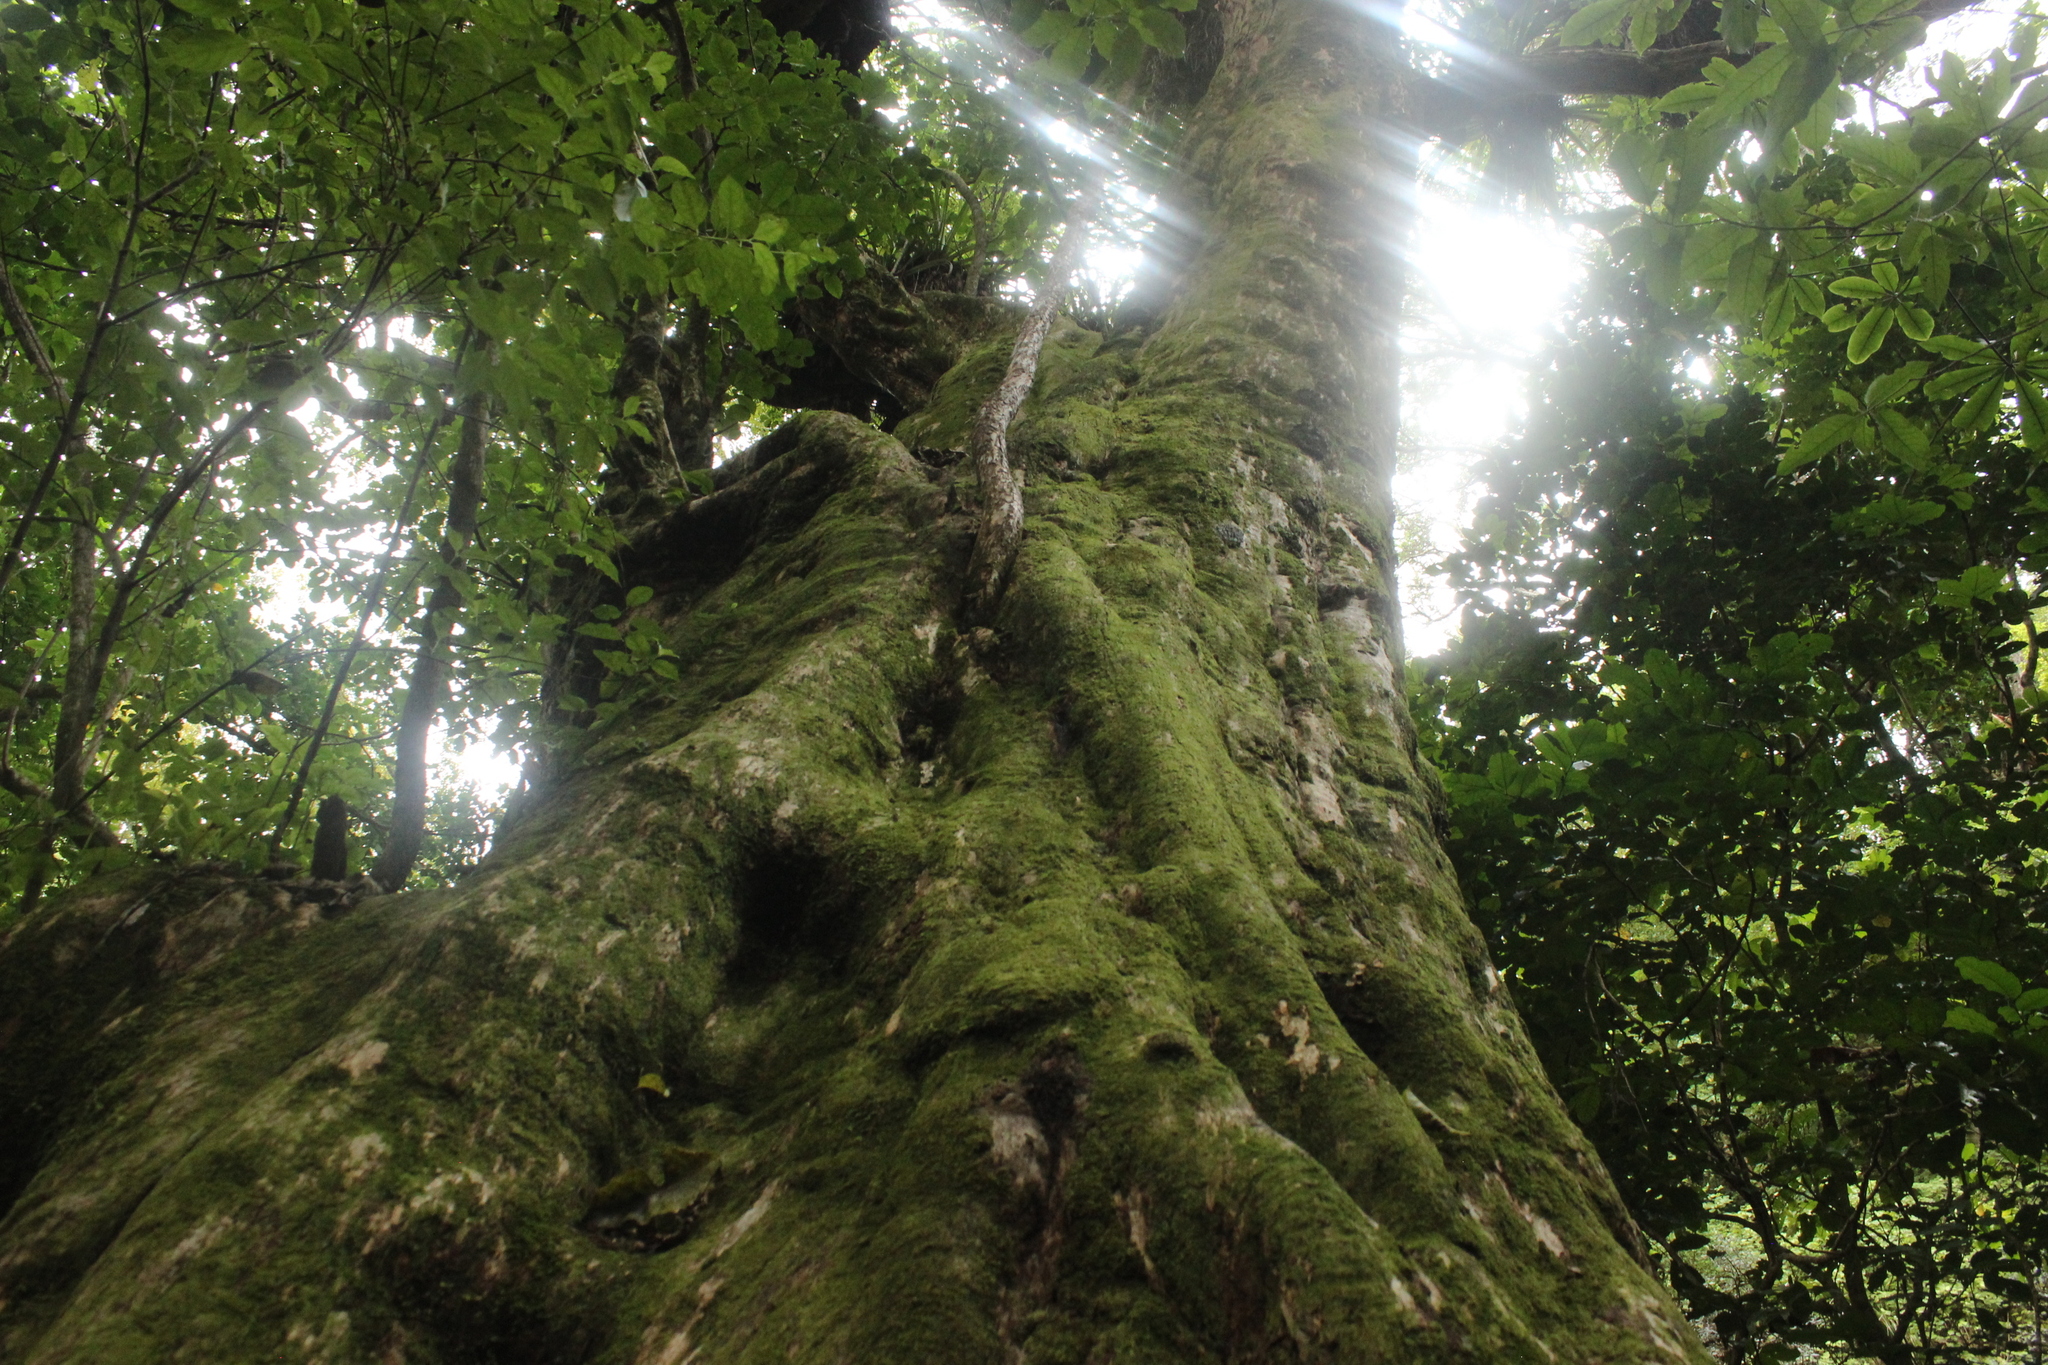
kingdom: Plantae
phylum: Tracheophyta
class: Magnoliopsida
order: Lamiales
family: Lamiaceae
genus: Vitex
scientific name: Vitex lucens
